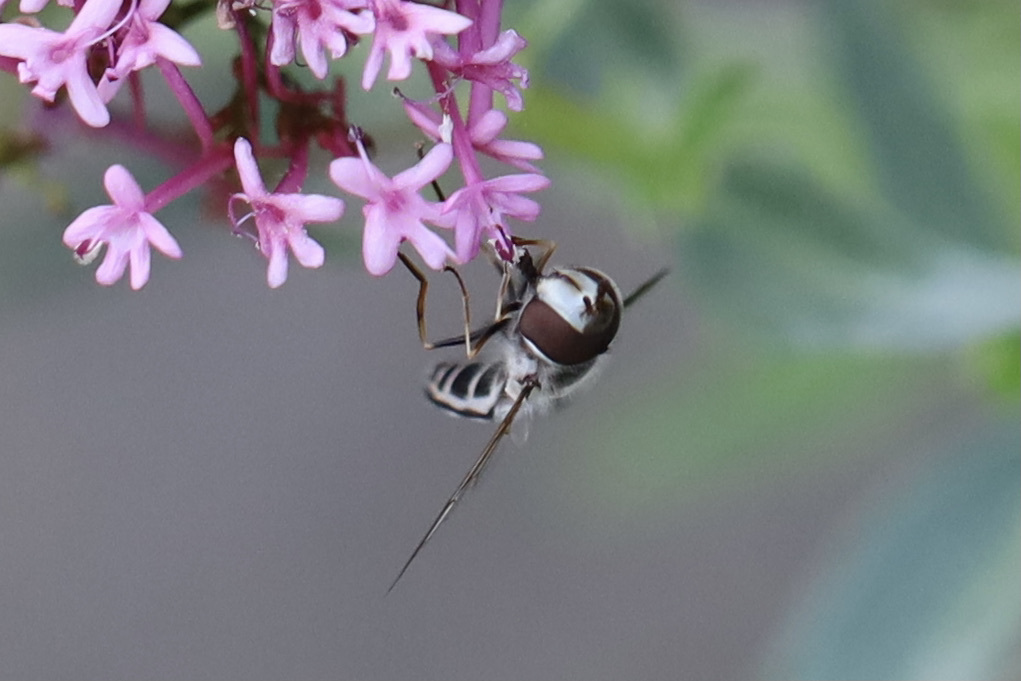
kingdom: Animalia
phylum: Arthropoda
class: Insecta
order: Diptera
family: Syrphidae
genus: Scaeva
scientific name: Scaeva affinis
